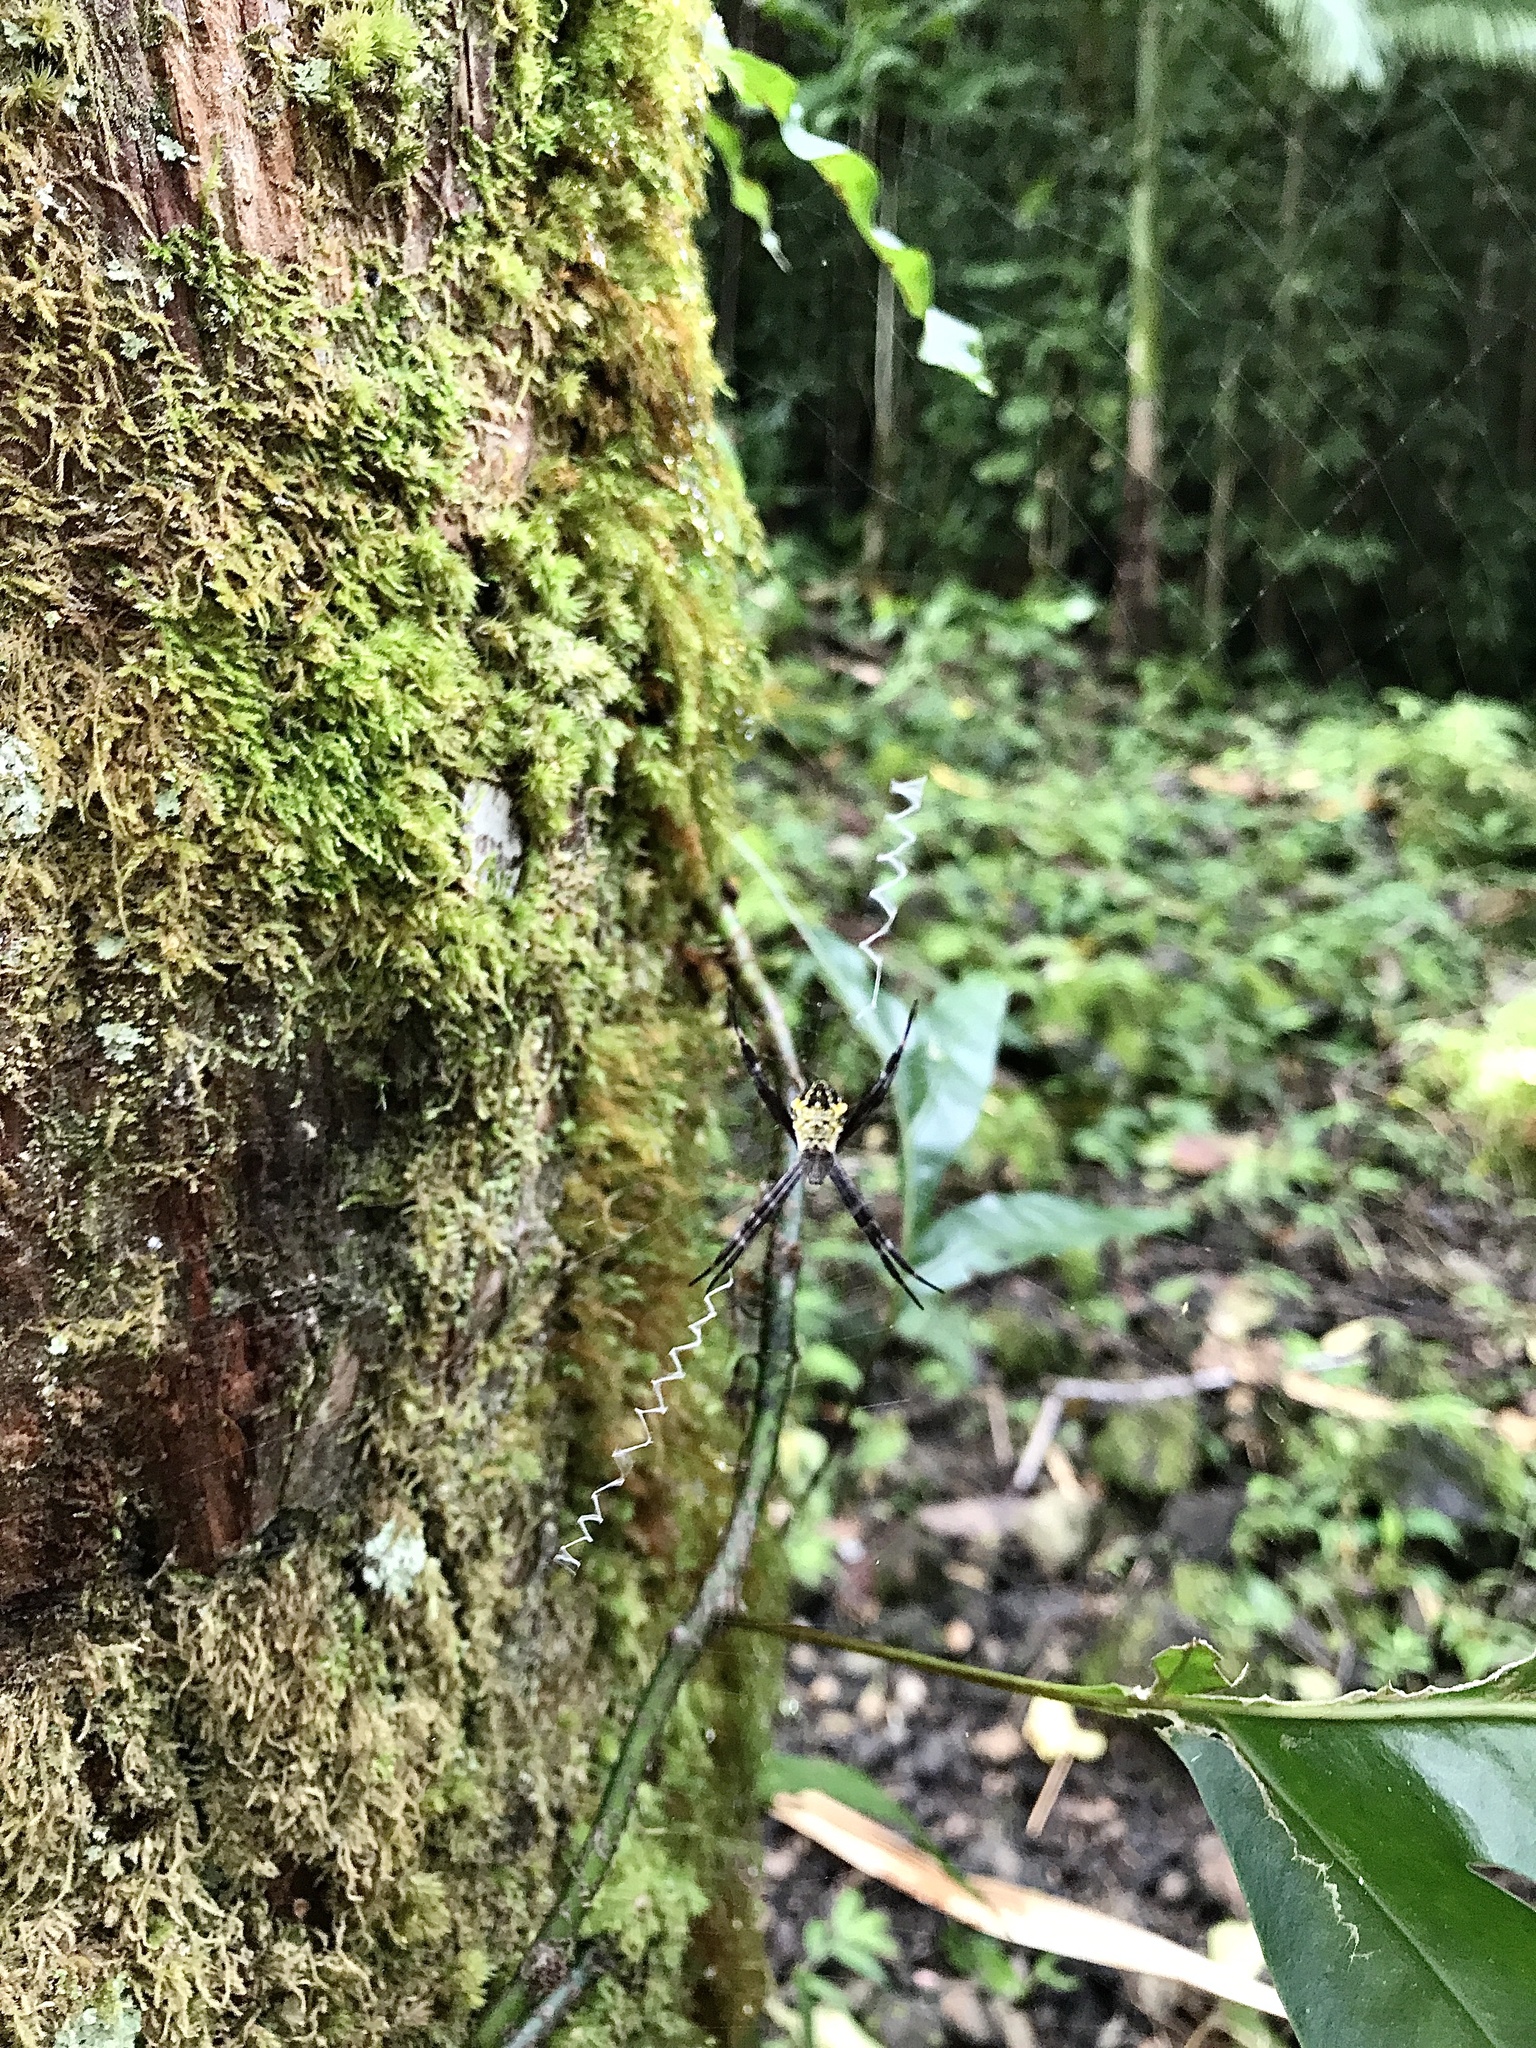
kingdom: Animalia
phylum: Arthropoda
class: Arachnida
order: Araneae
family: Araneidae
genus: Argiope
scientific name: Argiope appensa
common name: Garden spider
